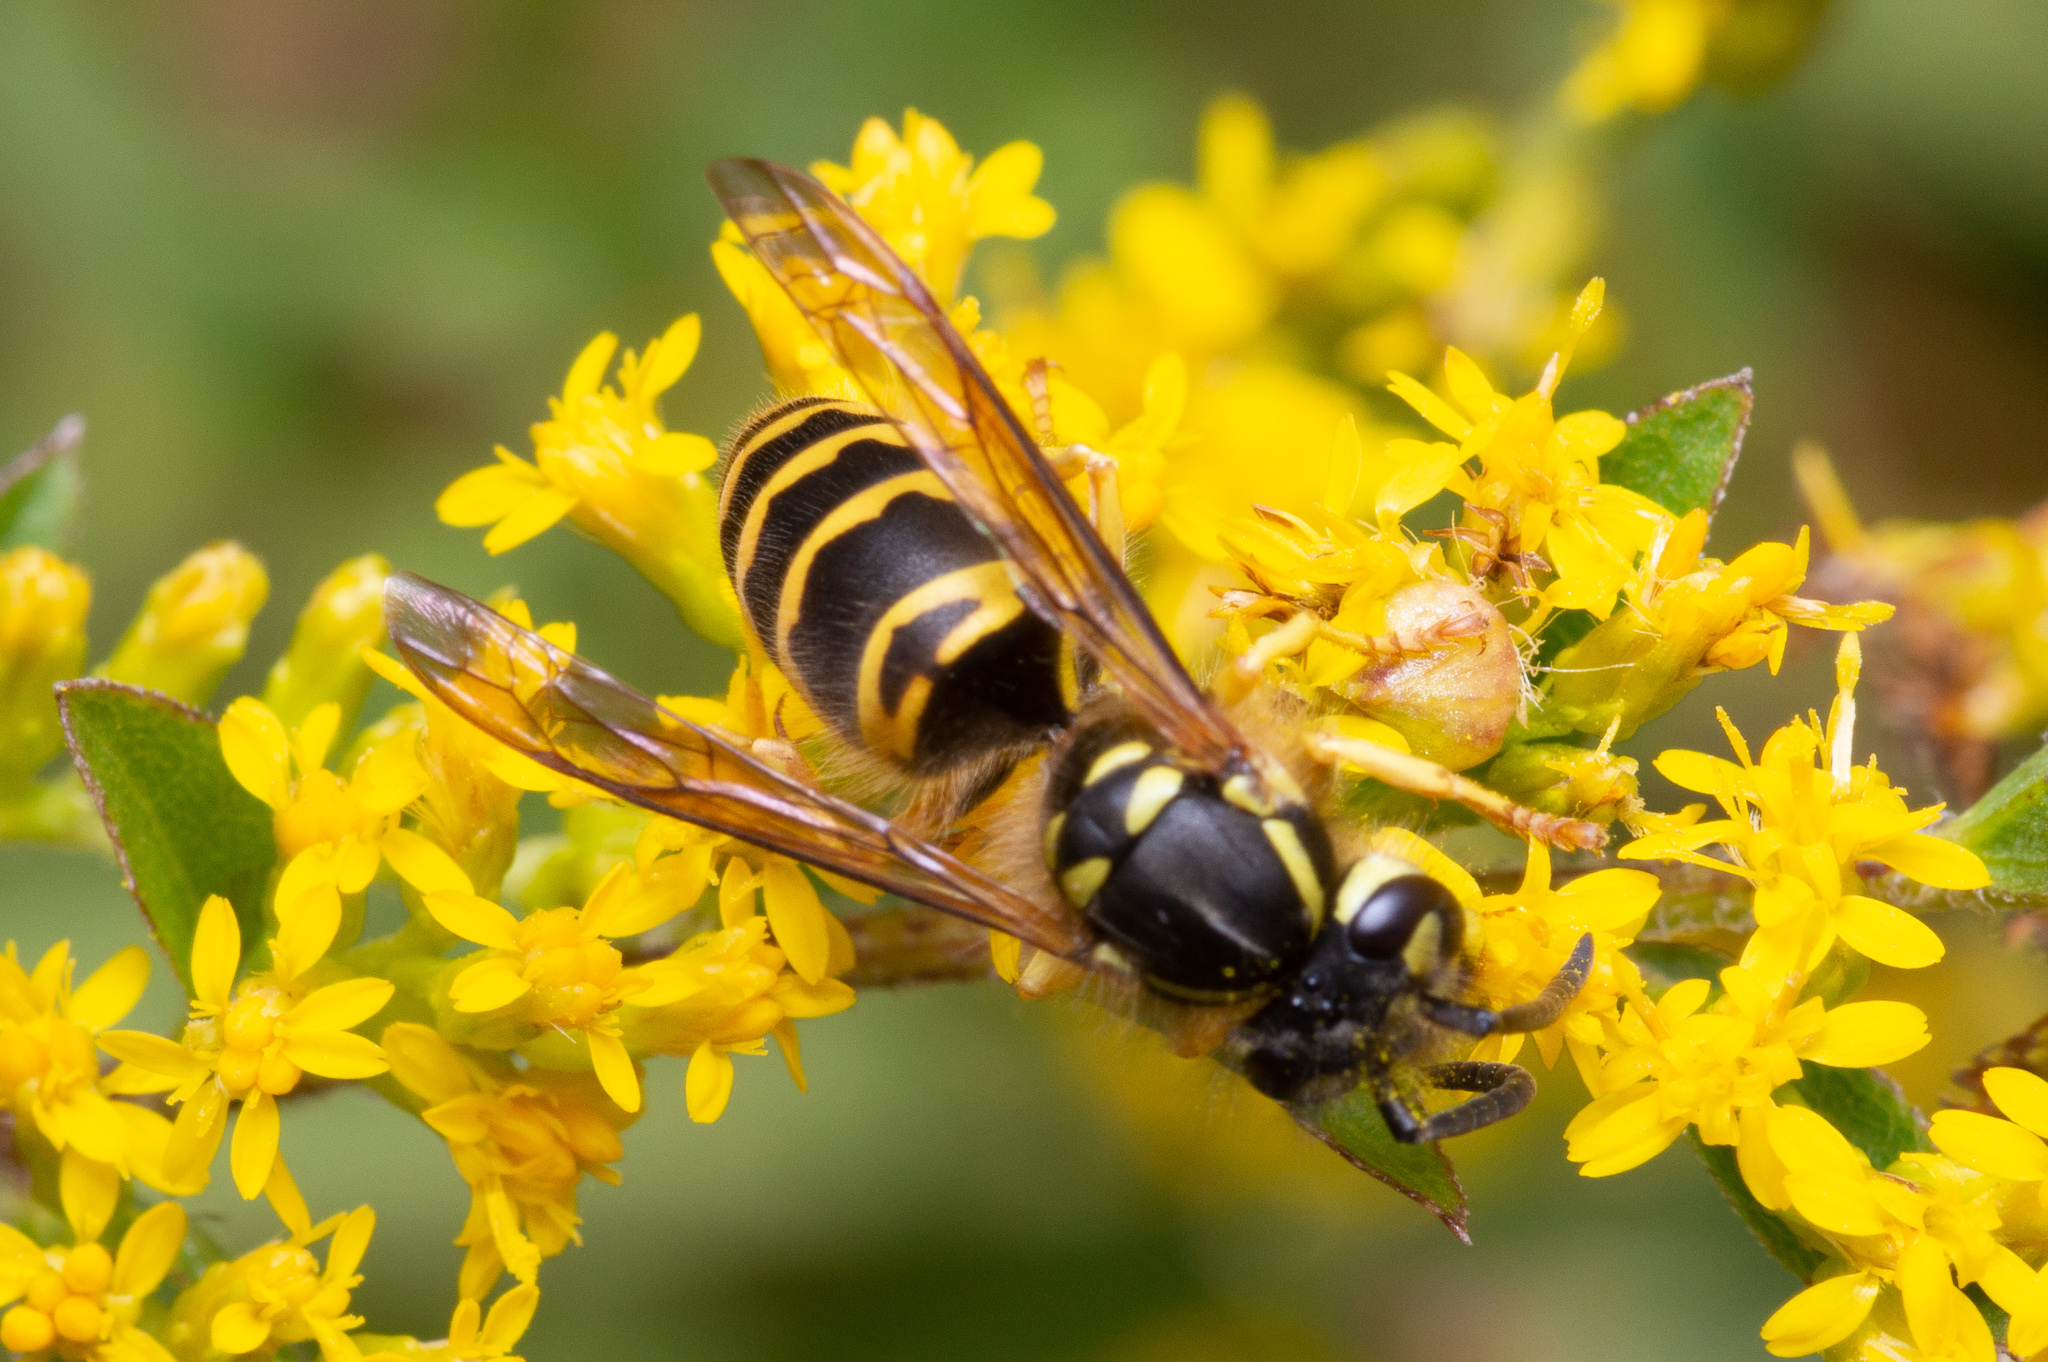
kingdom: Animalia
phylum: Arthropoda
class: Insecta
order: Hymenoptera
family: Vespidae
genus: Vespula
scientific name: Vespula maculifrons
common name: Eastern yellowjacket
